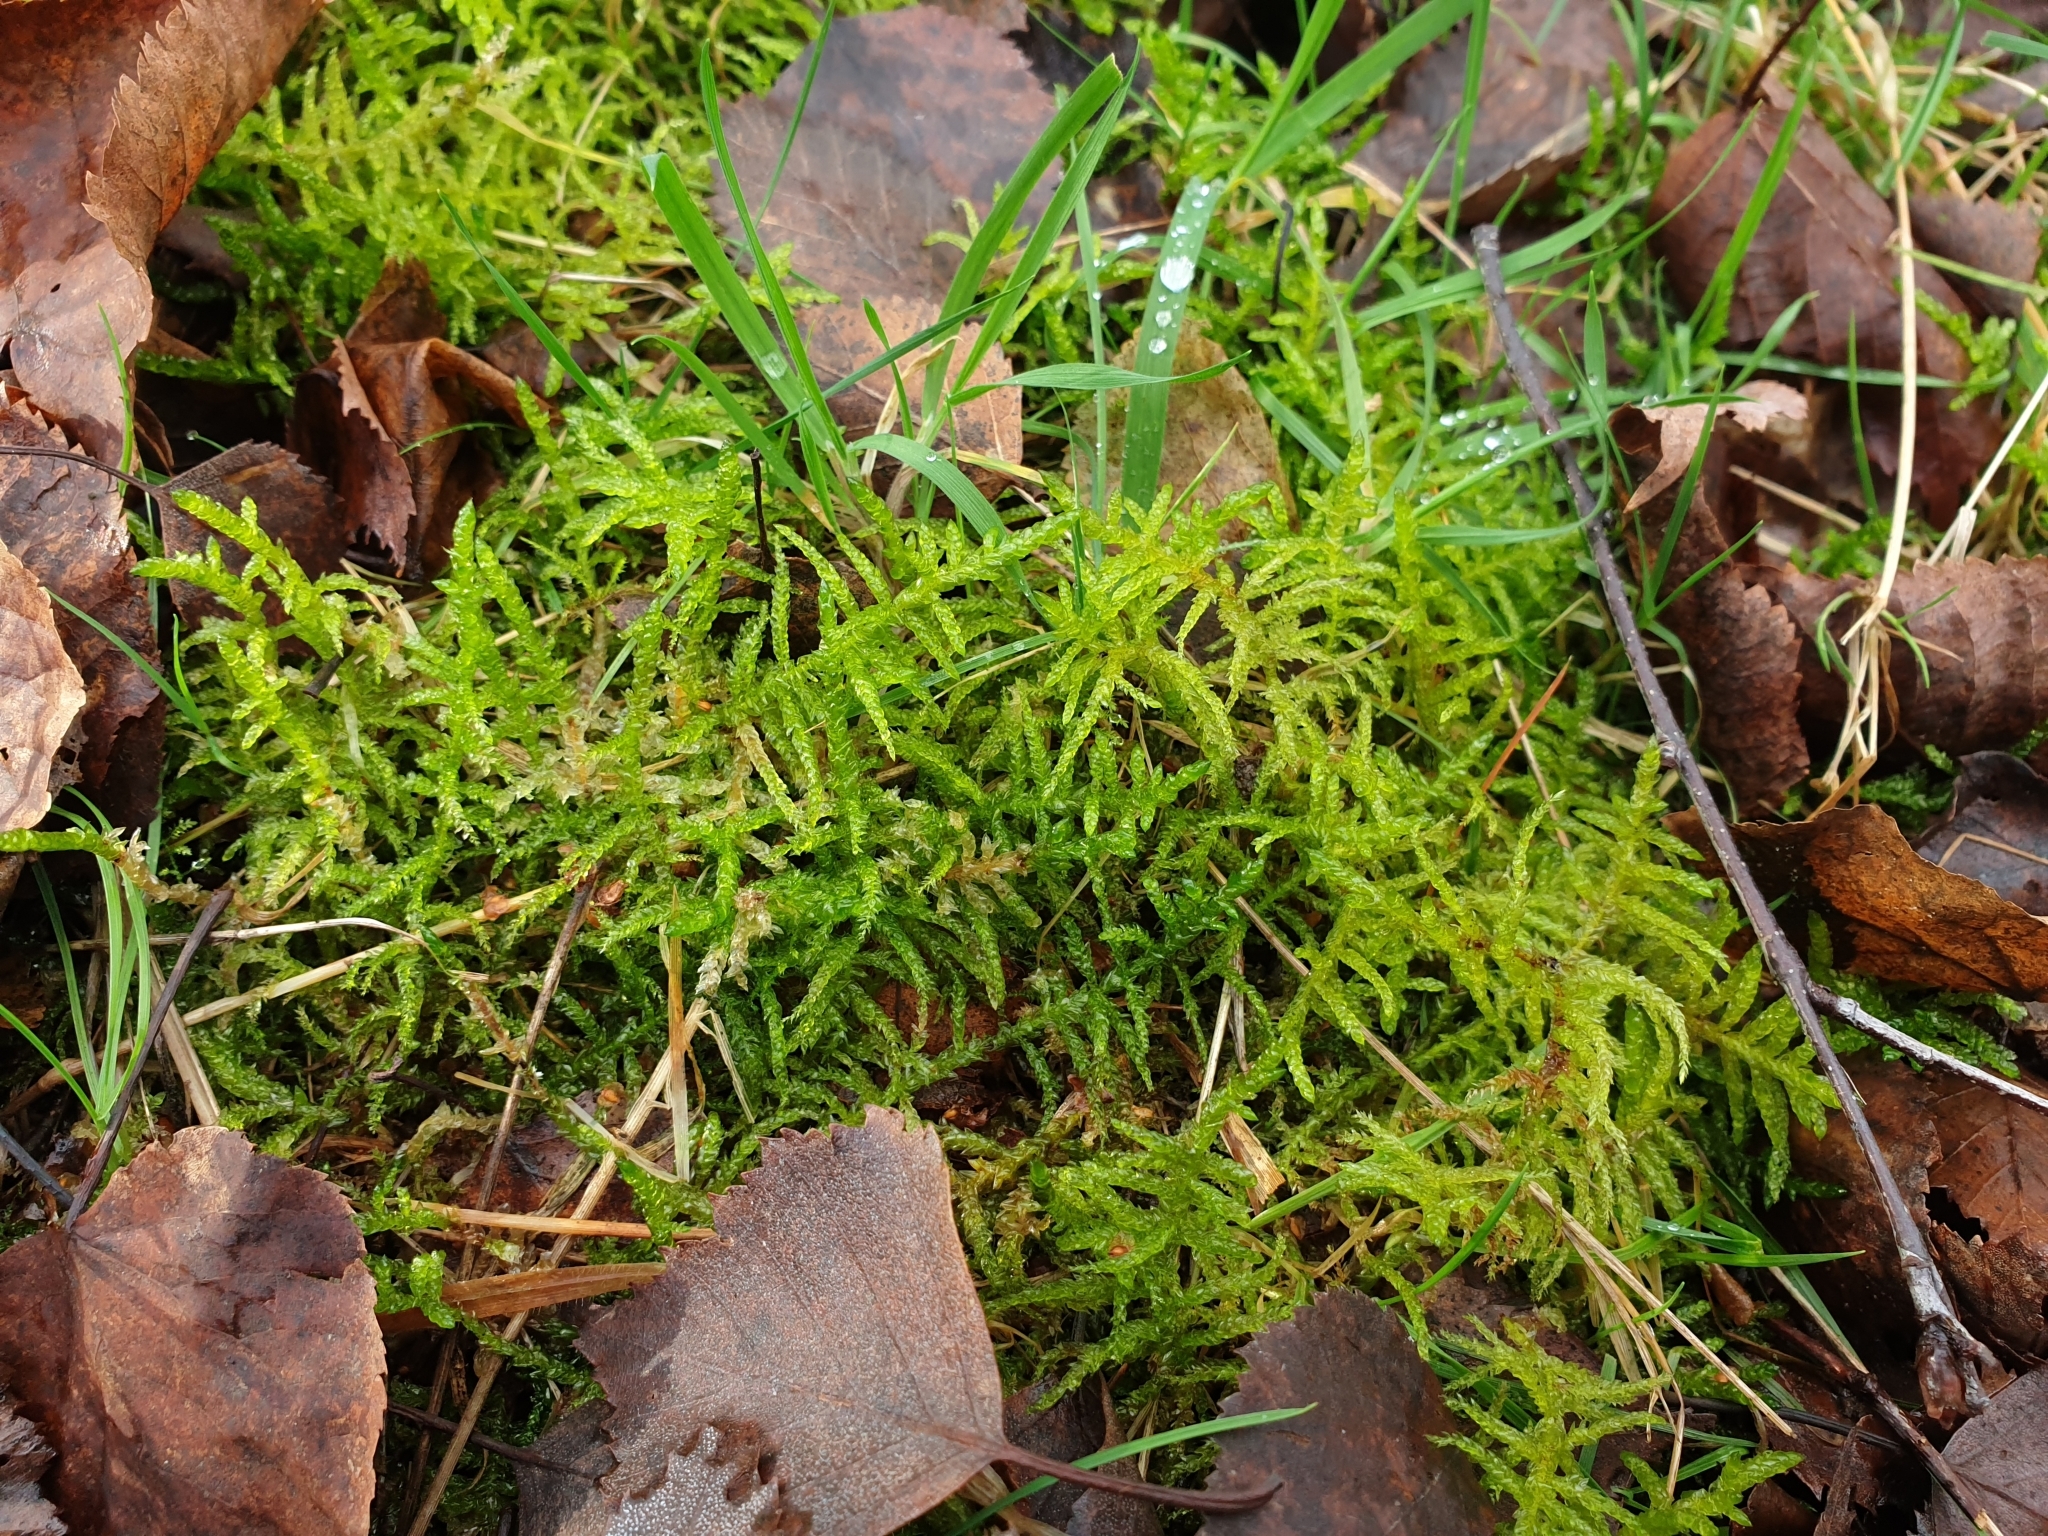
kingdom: Plantae
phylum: Bryophyta
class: Bryopsida
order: Hypnales
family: Brachytheciaceae
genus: Pseudoscleropodium
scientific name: Pseudoscleropodium purum
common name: Neat feather-moss
